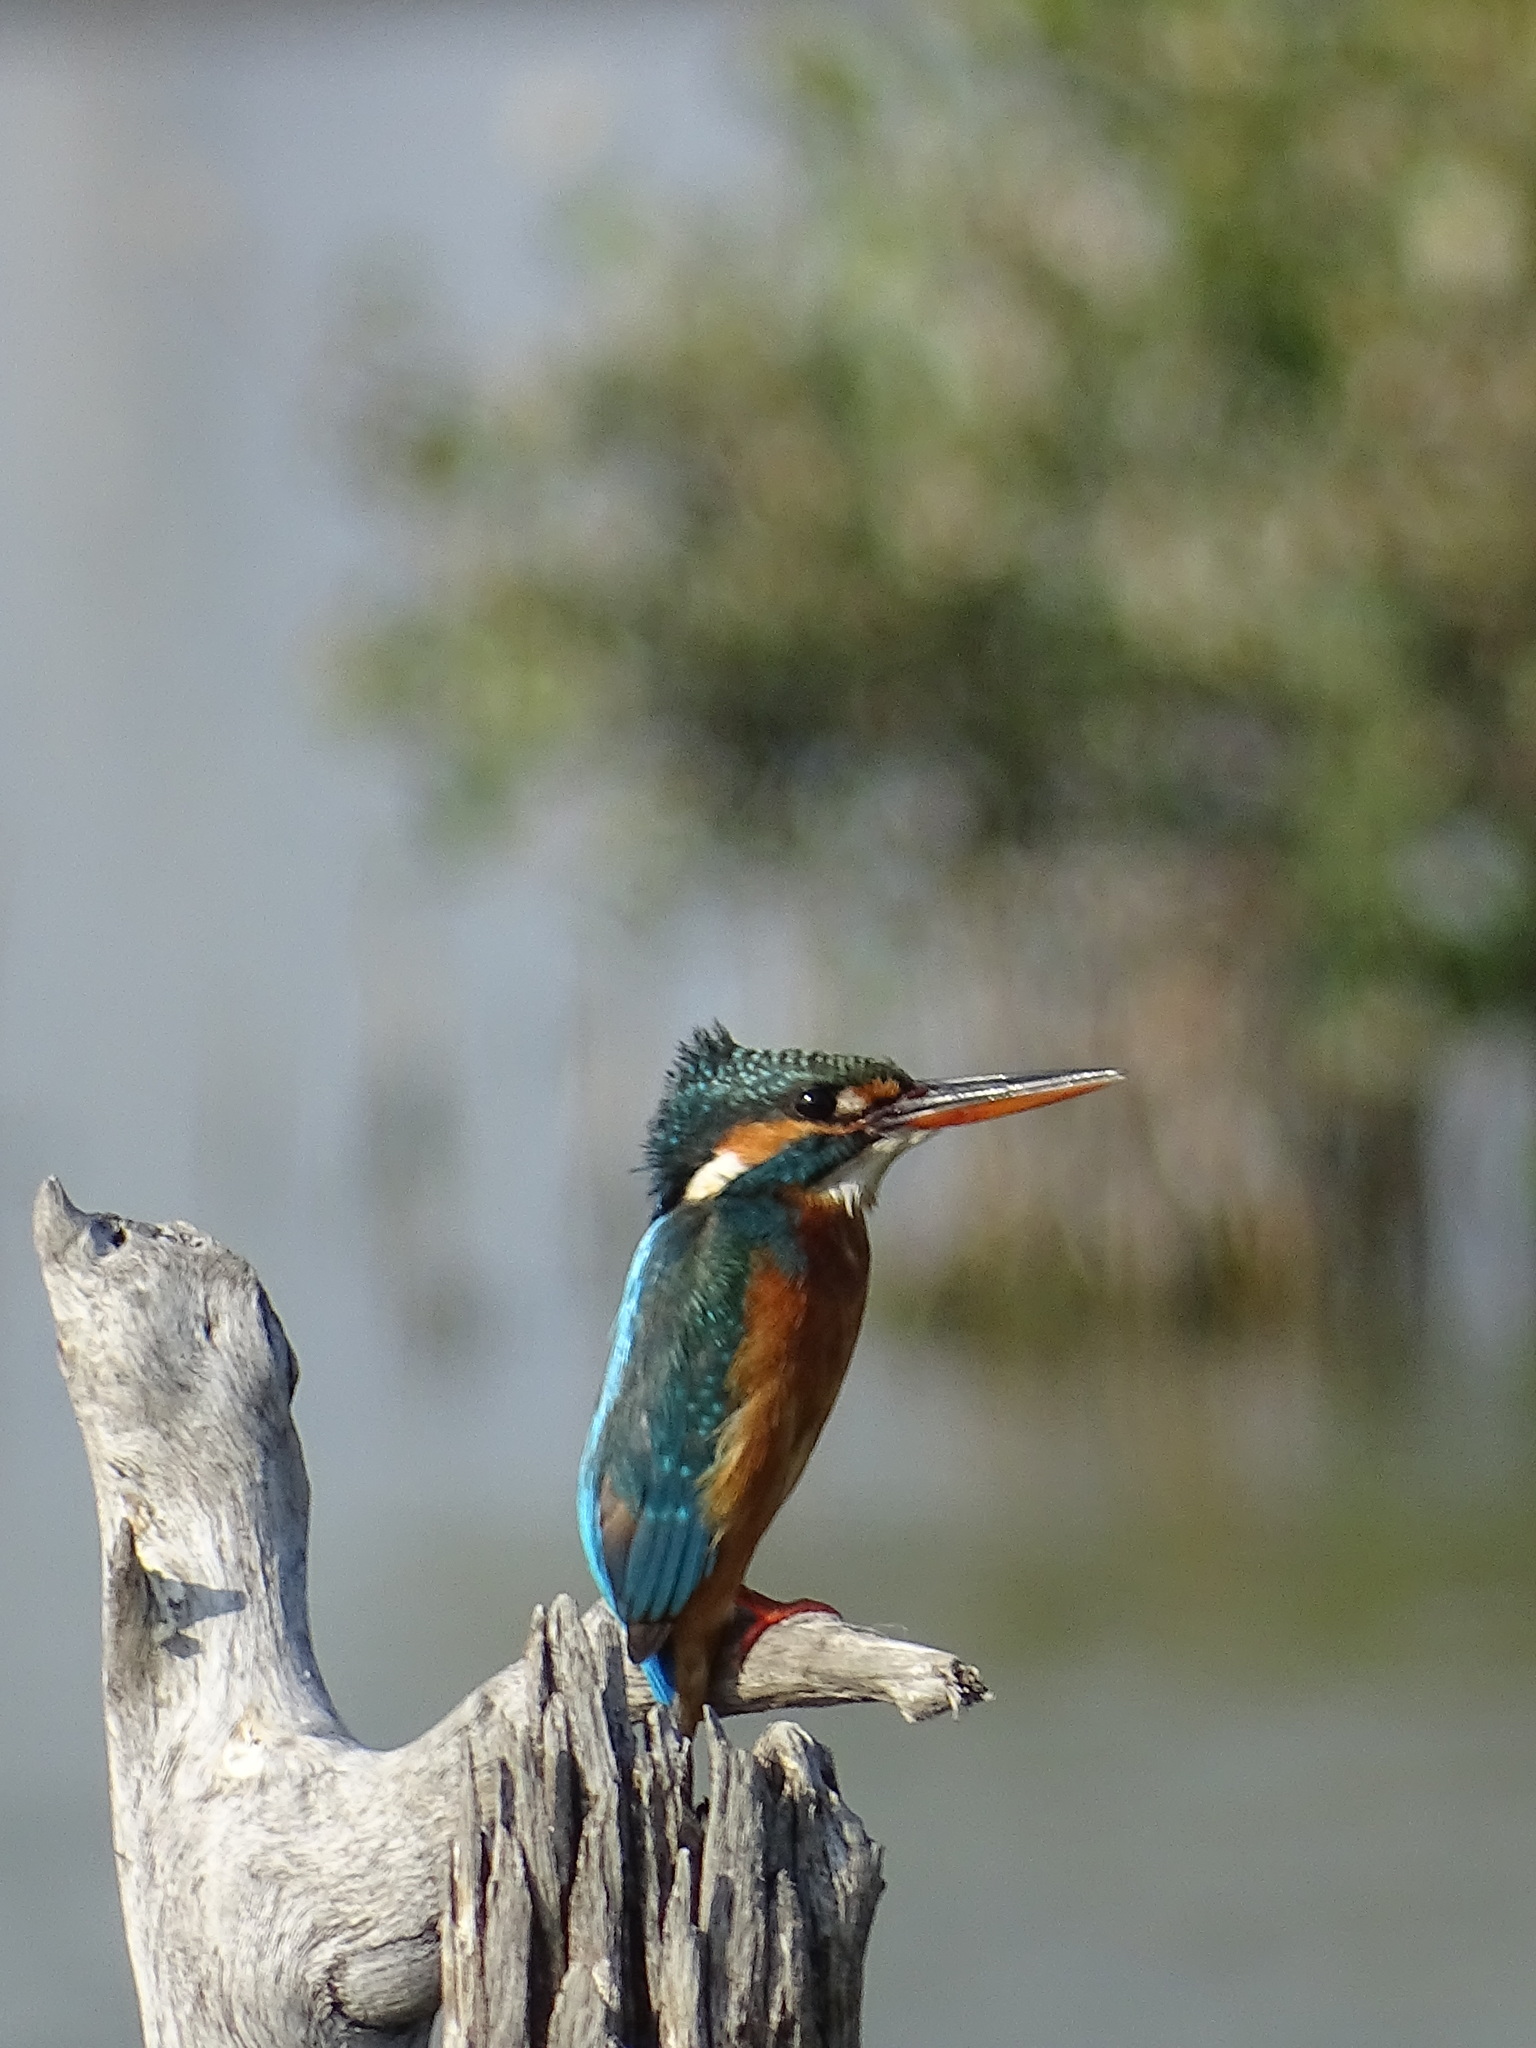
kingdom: Animalia
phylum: Chordata
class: Aves
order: Coraciiformes
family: Alcedinidae
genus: Alcedo
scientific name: Alcedo atthis
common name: Common kingfisher
